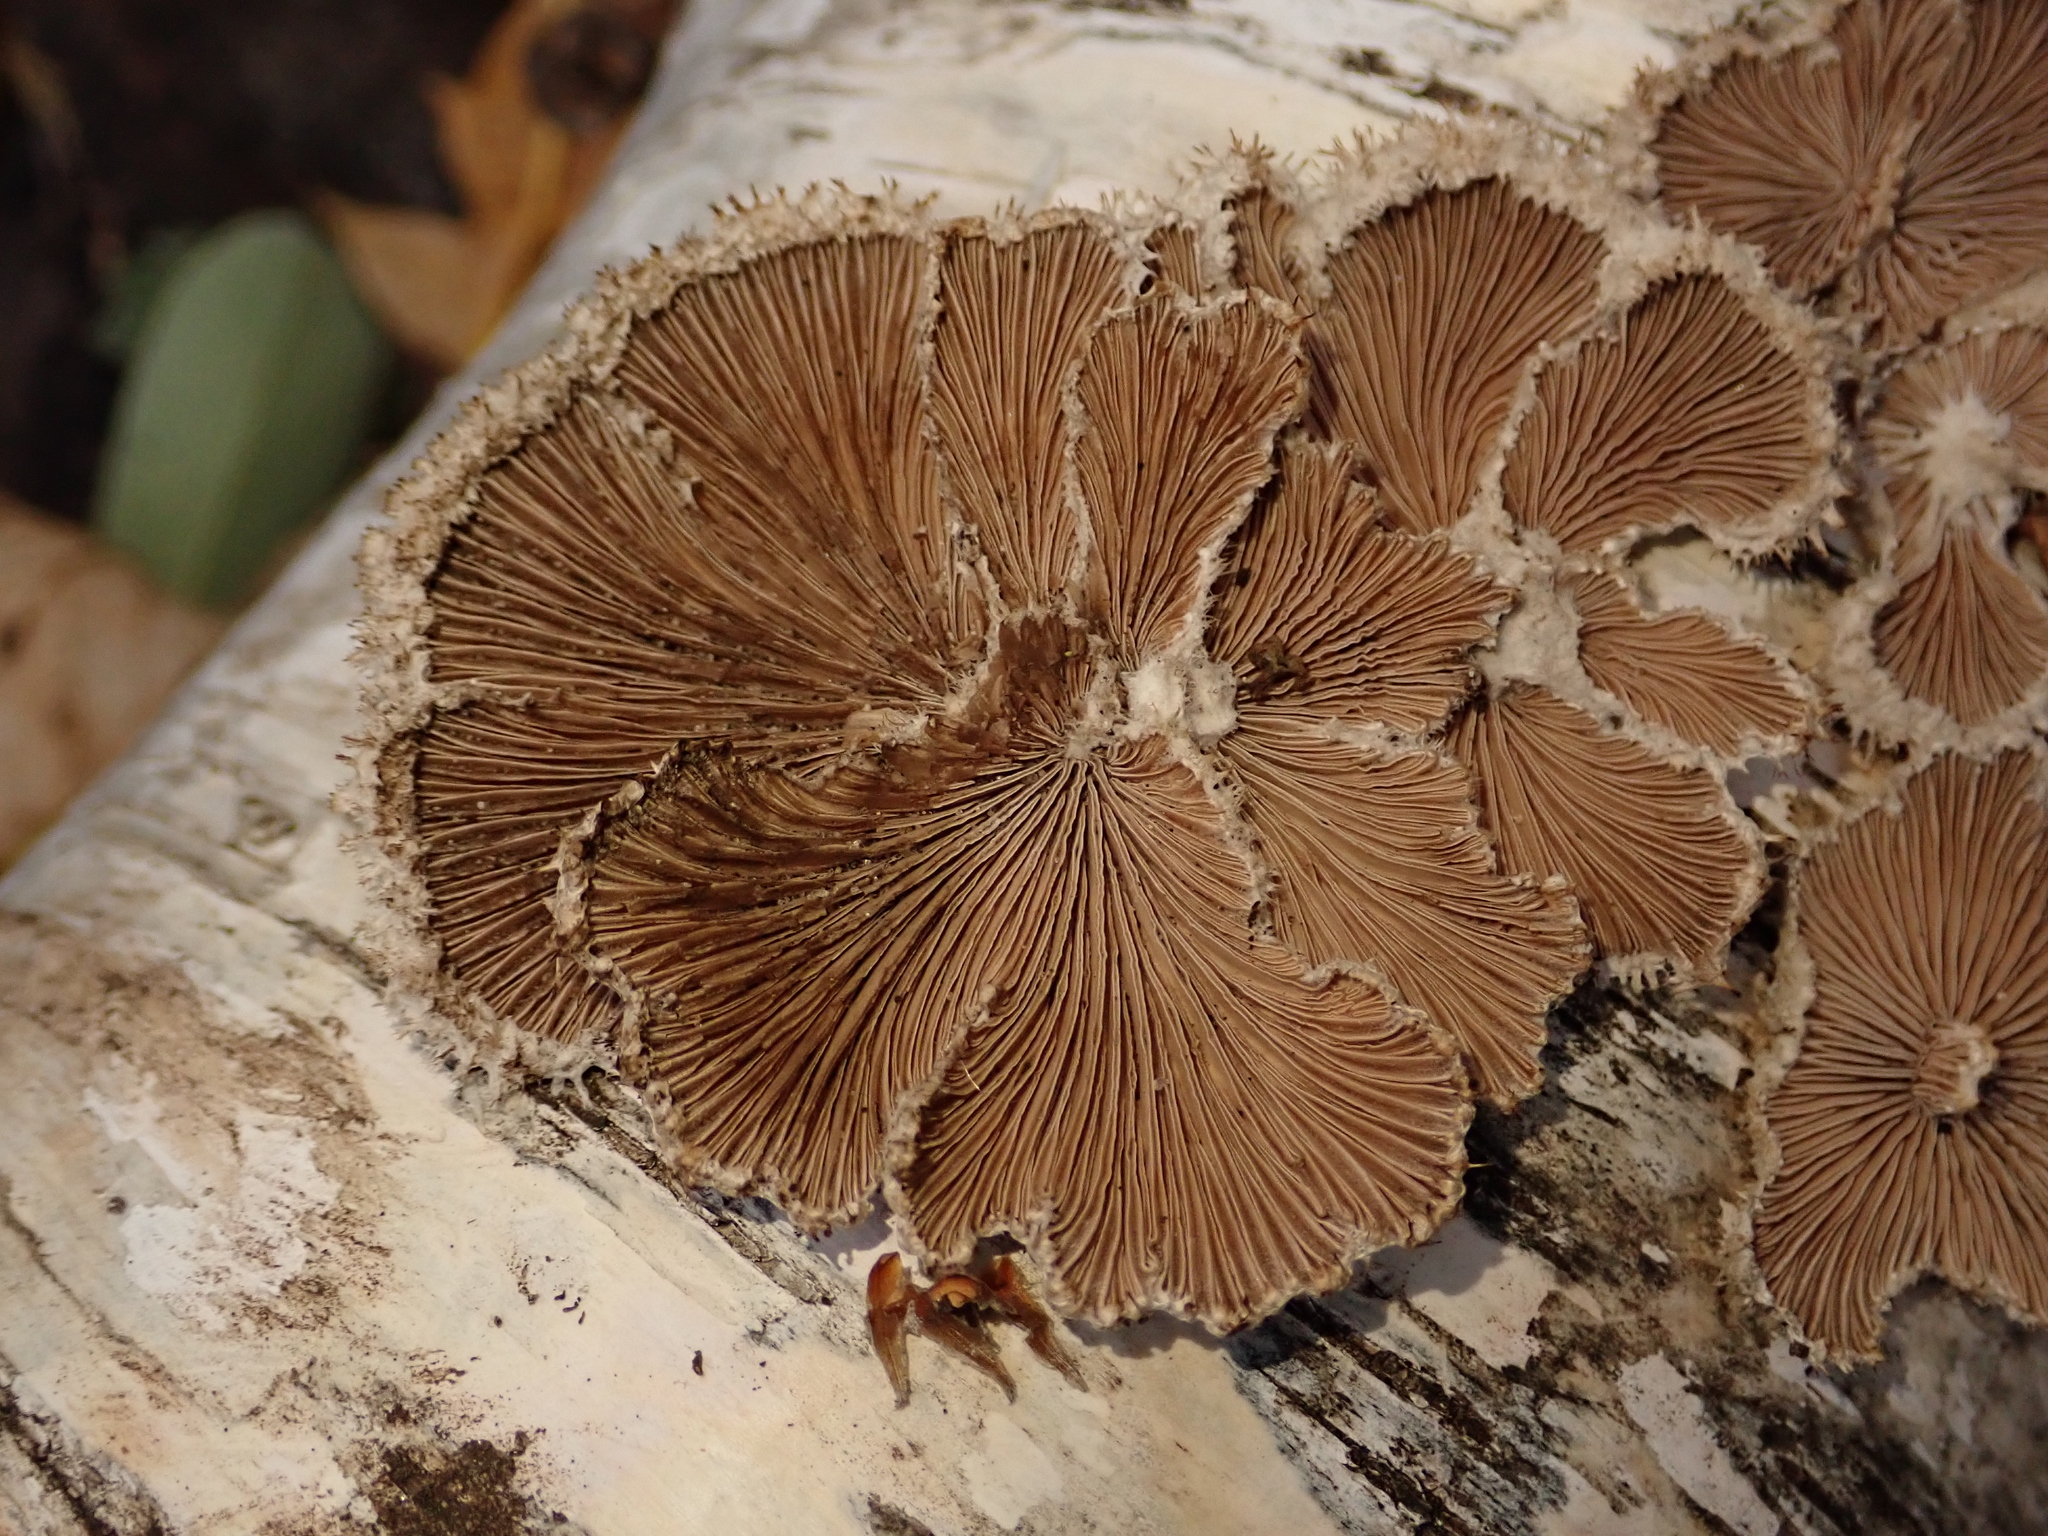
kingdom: Fungi
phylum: Basidiomycota
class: Agaricomycetes
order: Agaricales
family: Schizophyllaceae
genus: Schizophyllum
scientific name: Schizophyllum commune
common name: Common porecrust
